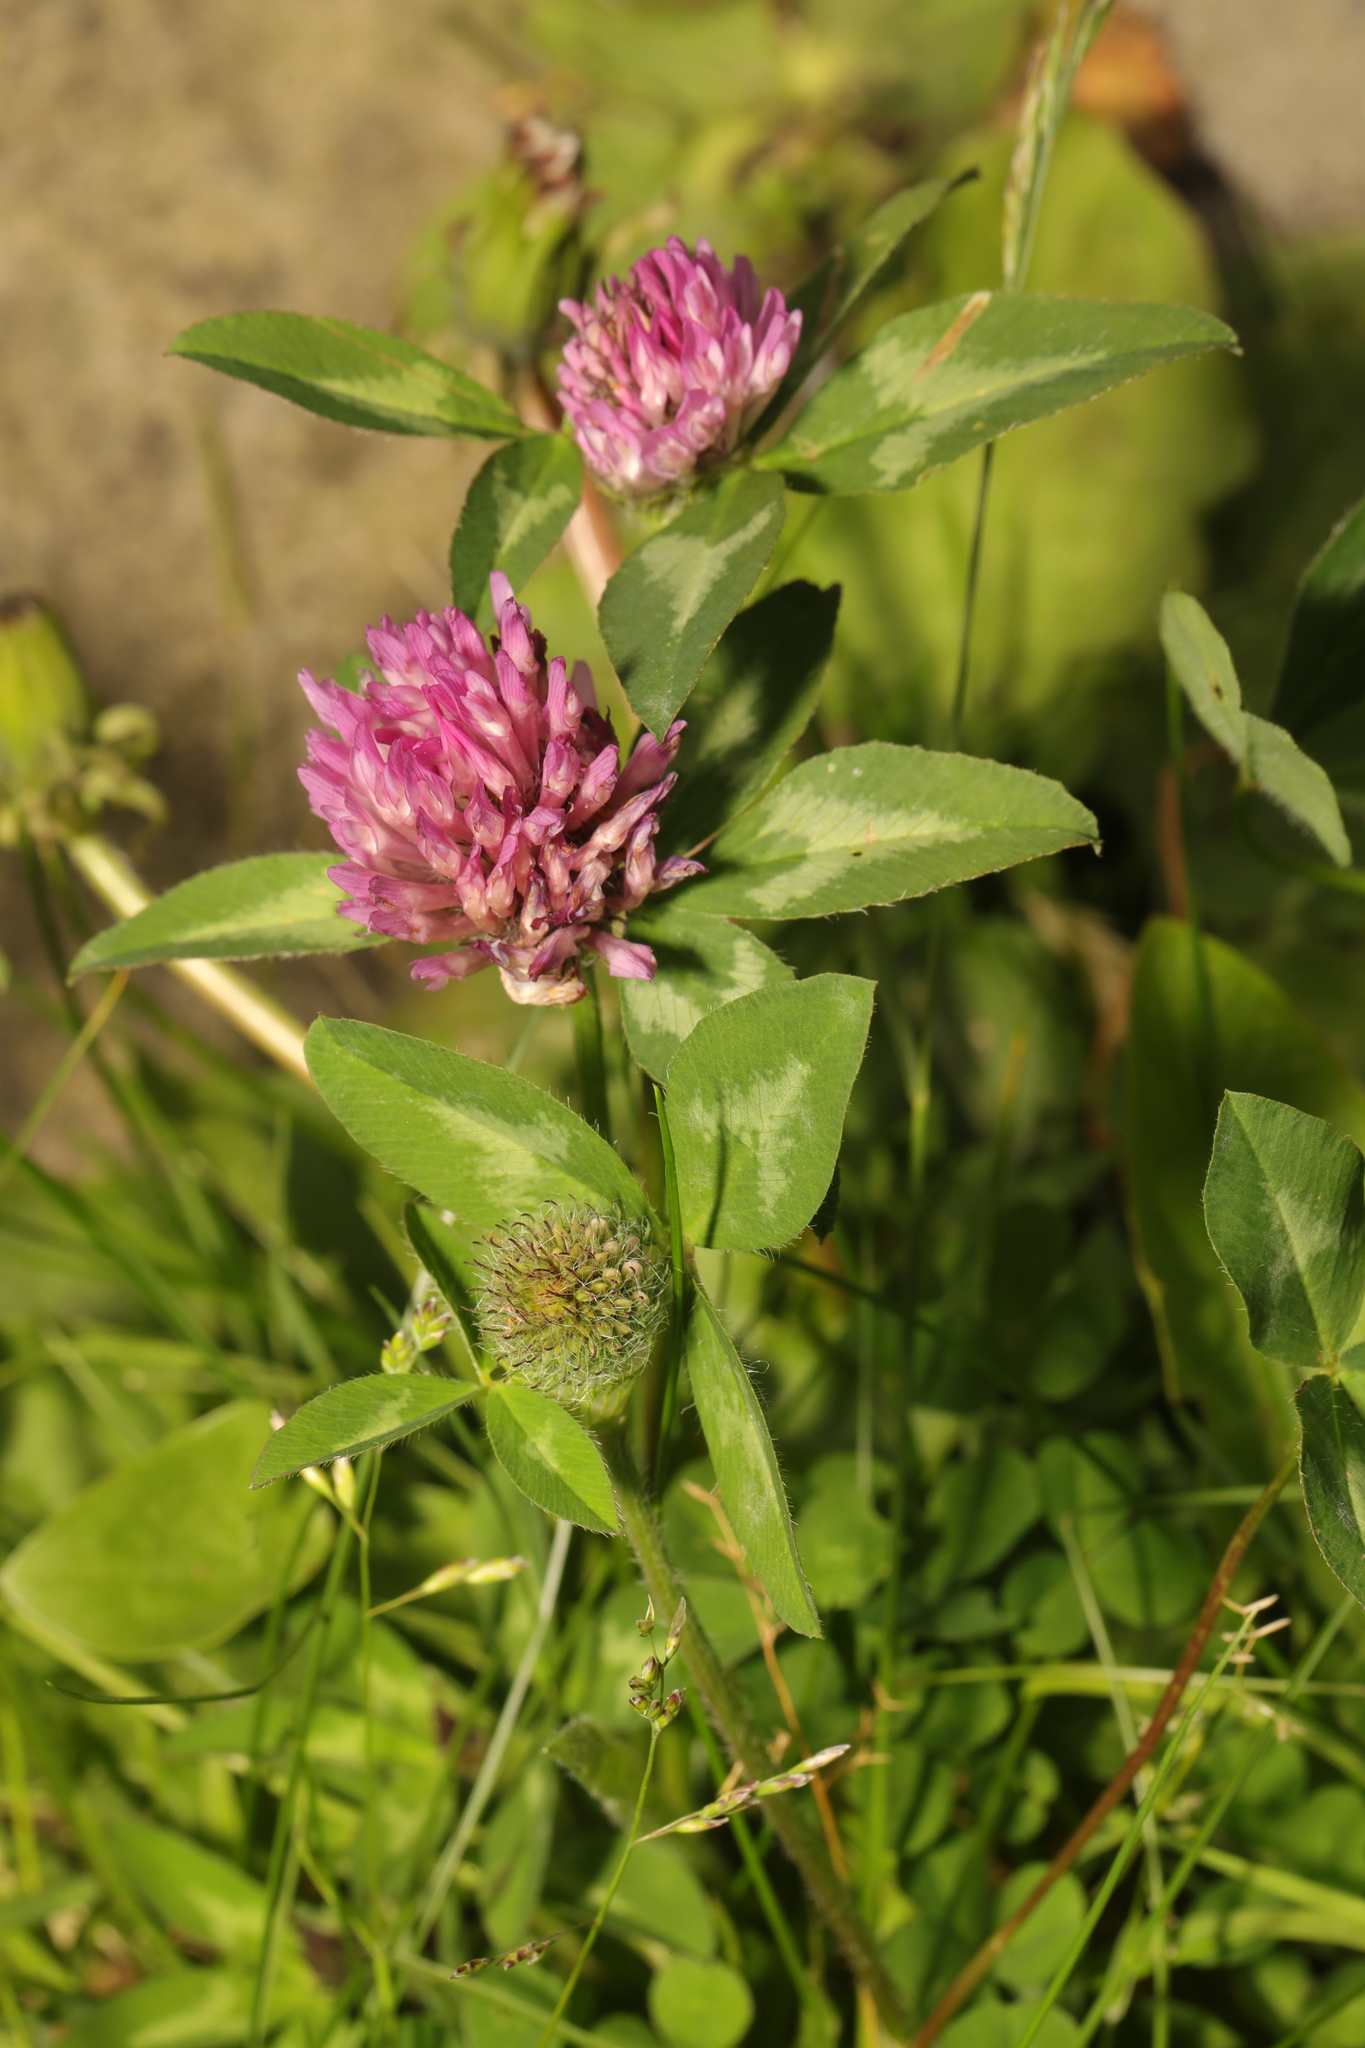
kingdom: Plantae
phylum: Tracheophyta
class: Magnoliopsida
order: Fabales
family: Fabaceae
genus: Trifolium
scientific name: Trifolium pratense
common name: Red clover
